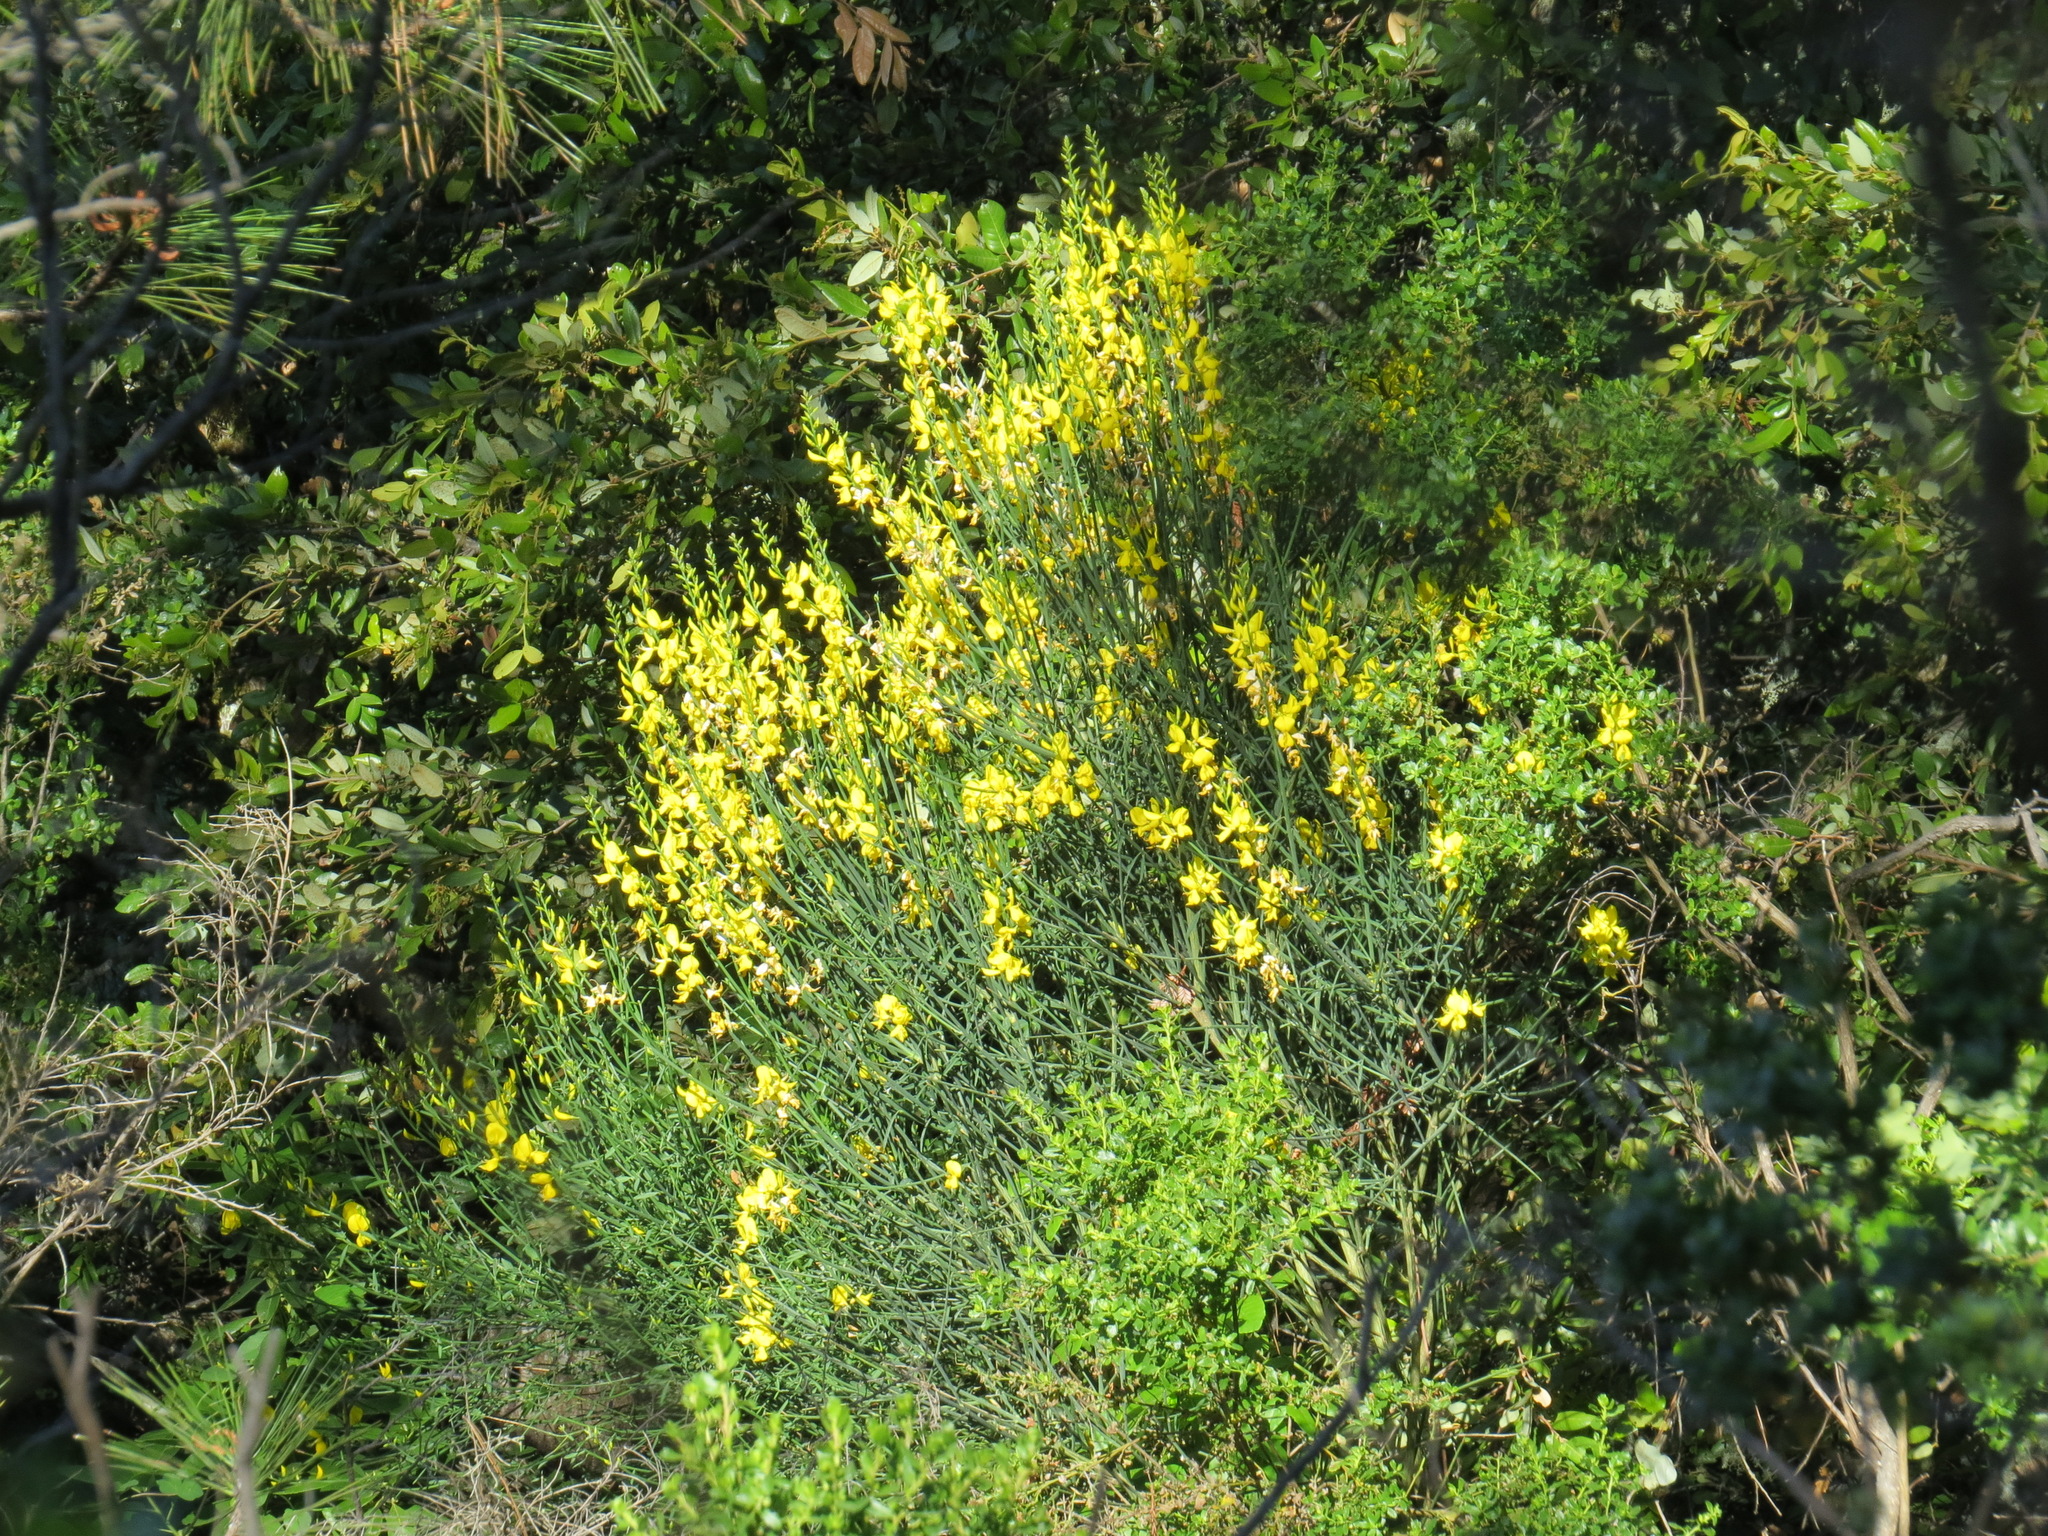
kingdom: Plantae
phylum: Tracheophyta
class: Magnoliopsida
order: Fabales
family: Fabaceae
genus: Spartium
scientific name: Spartium junceum
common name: Spanish broom
